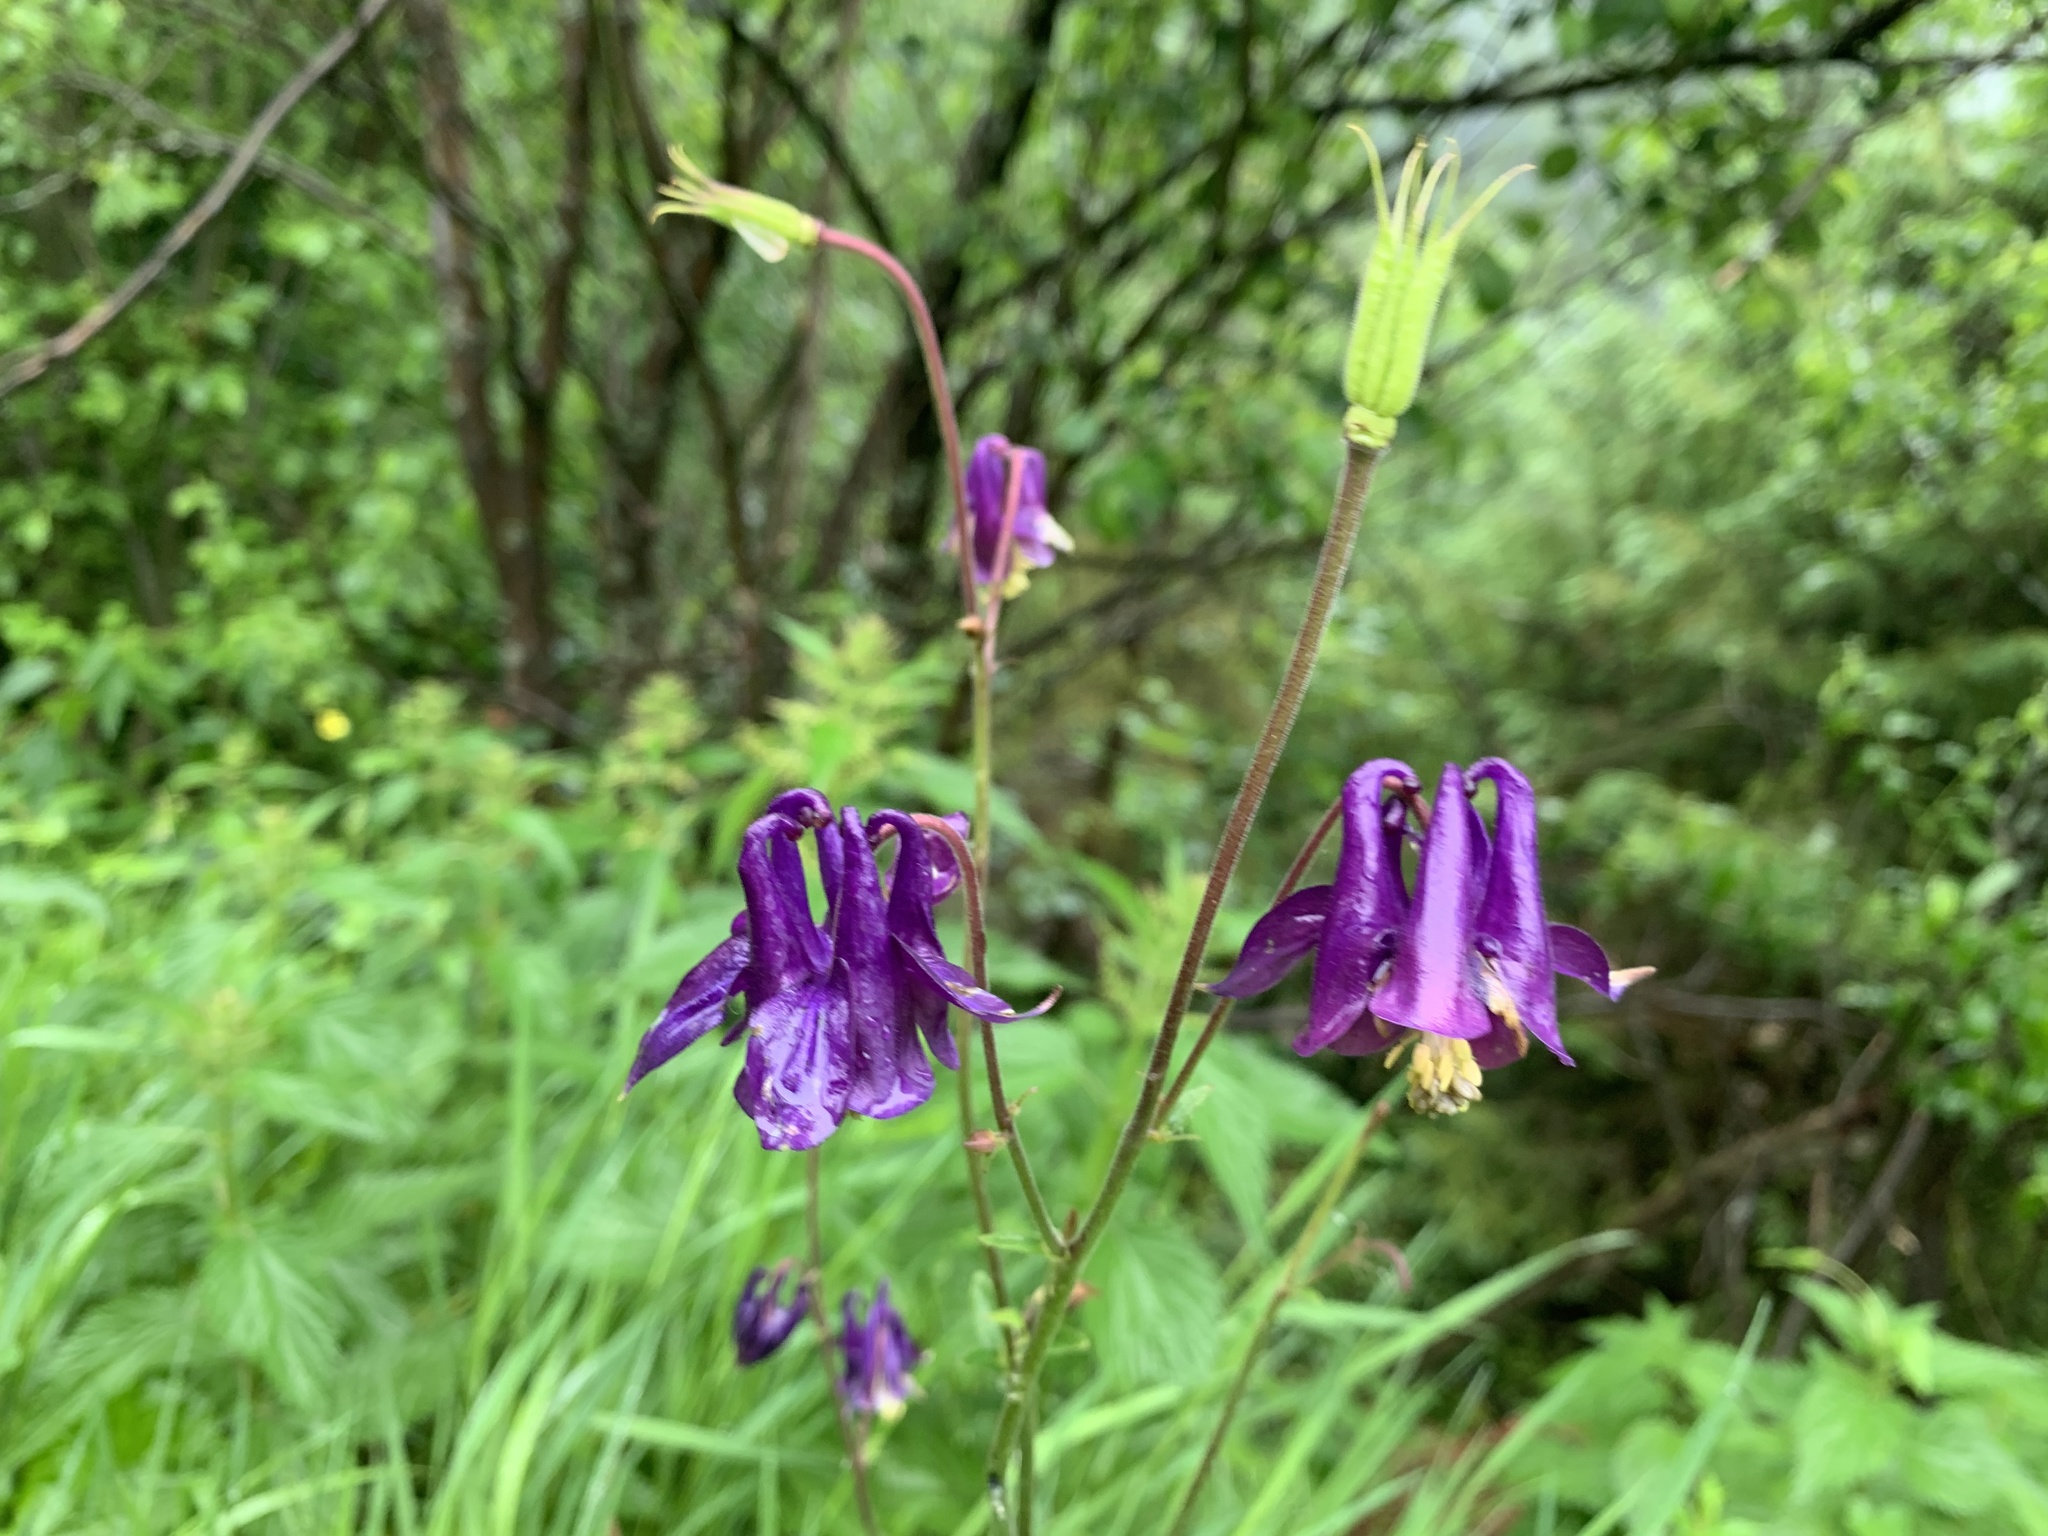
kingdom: Plantae
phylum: Tracheophyta
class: Magnoliopsida
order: Ranunculales
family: Ranunculaceae
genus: Aquilegia
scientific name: Aquilegia vulgaris
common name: Columbine
